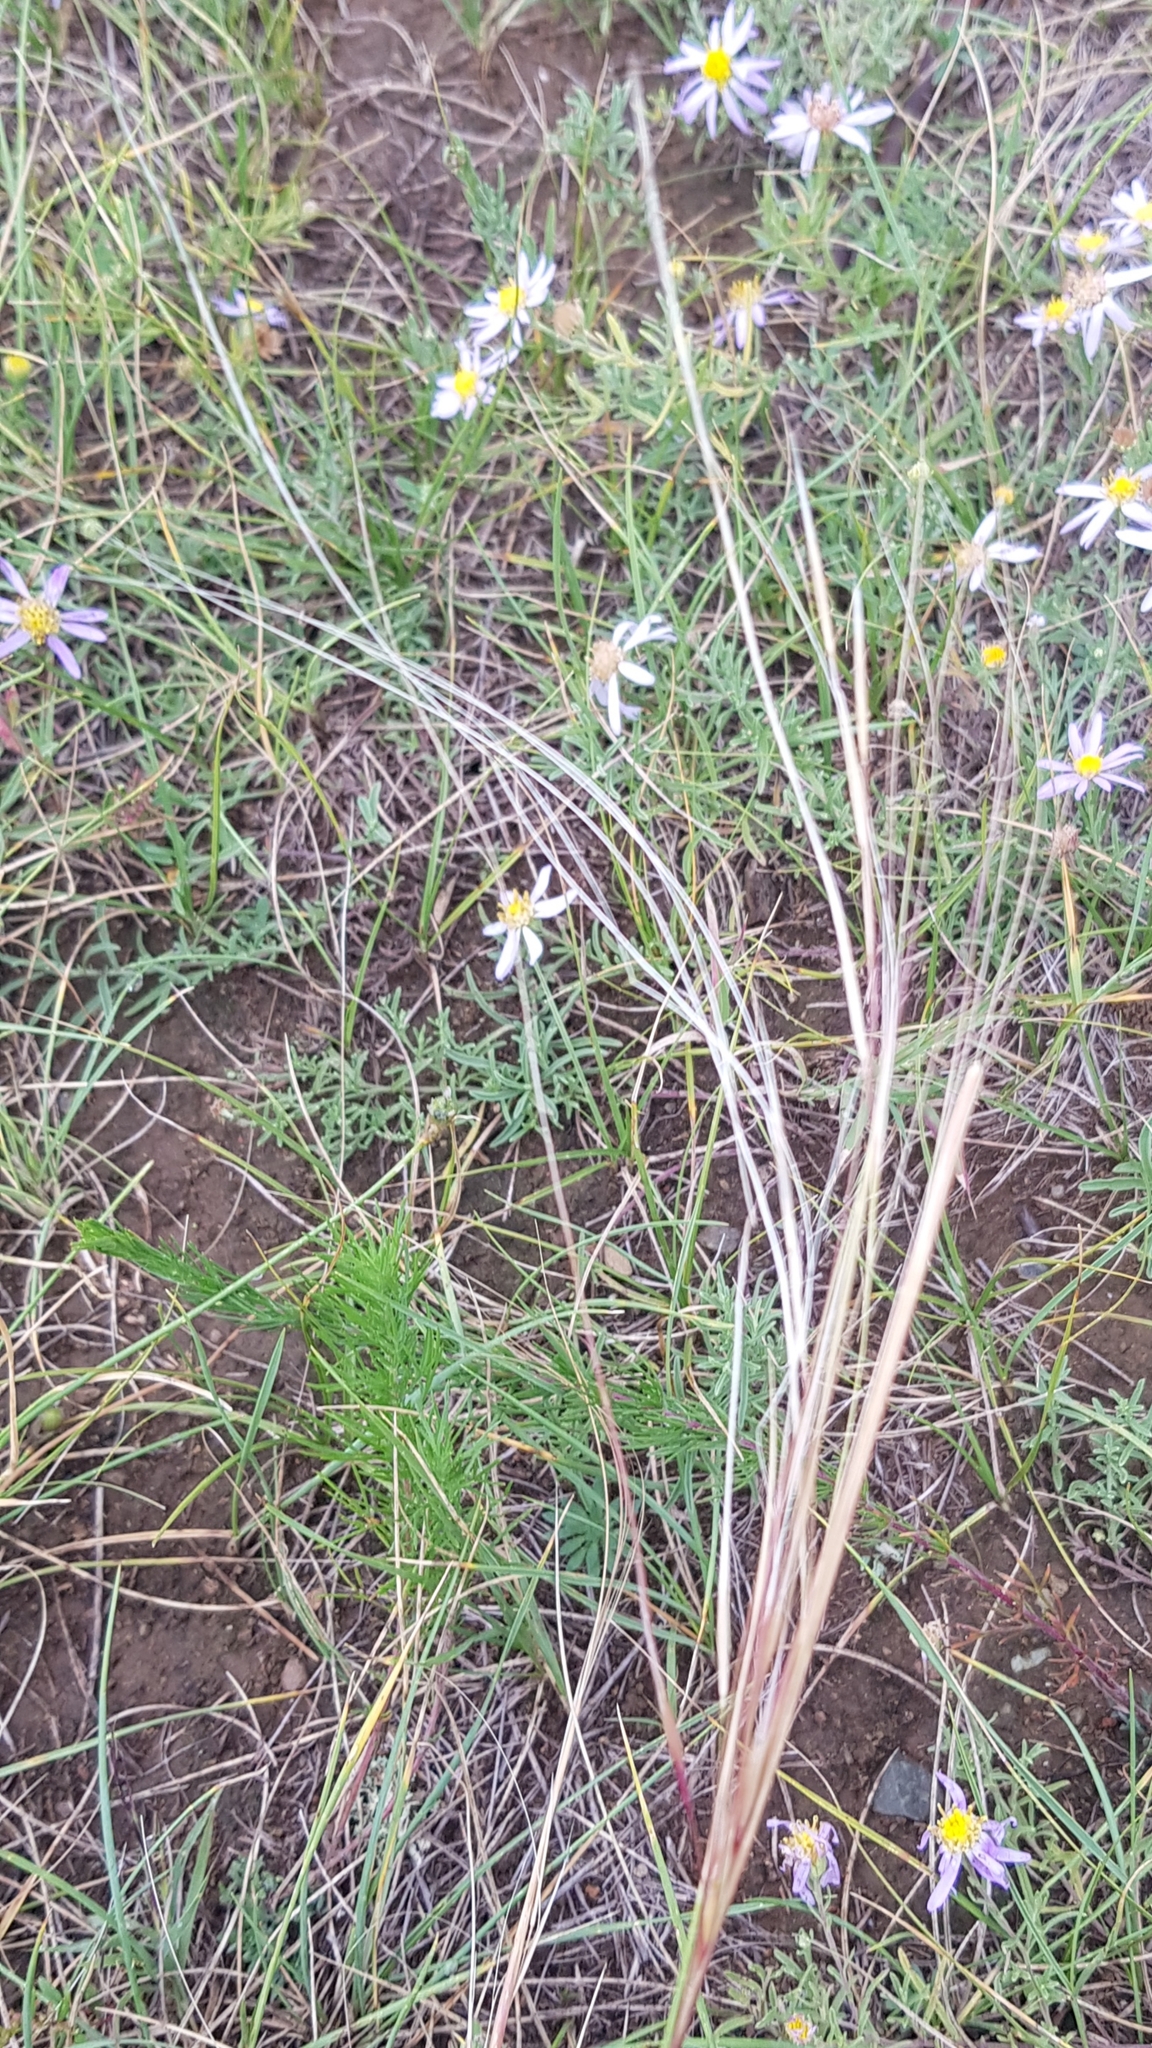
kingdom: Plantae
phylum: Tracheophyta
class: Liliopsida
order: Poales
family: Poaceae
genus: Stipa
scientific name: Stipa krylovii
